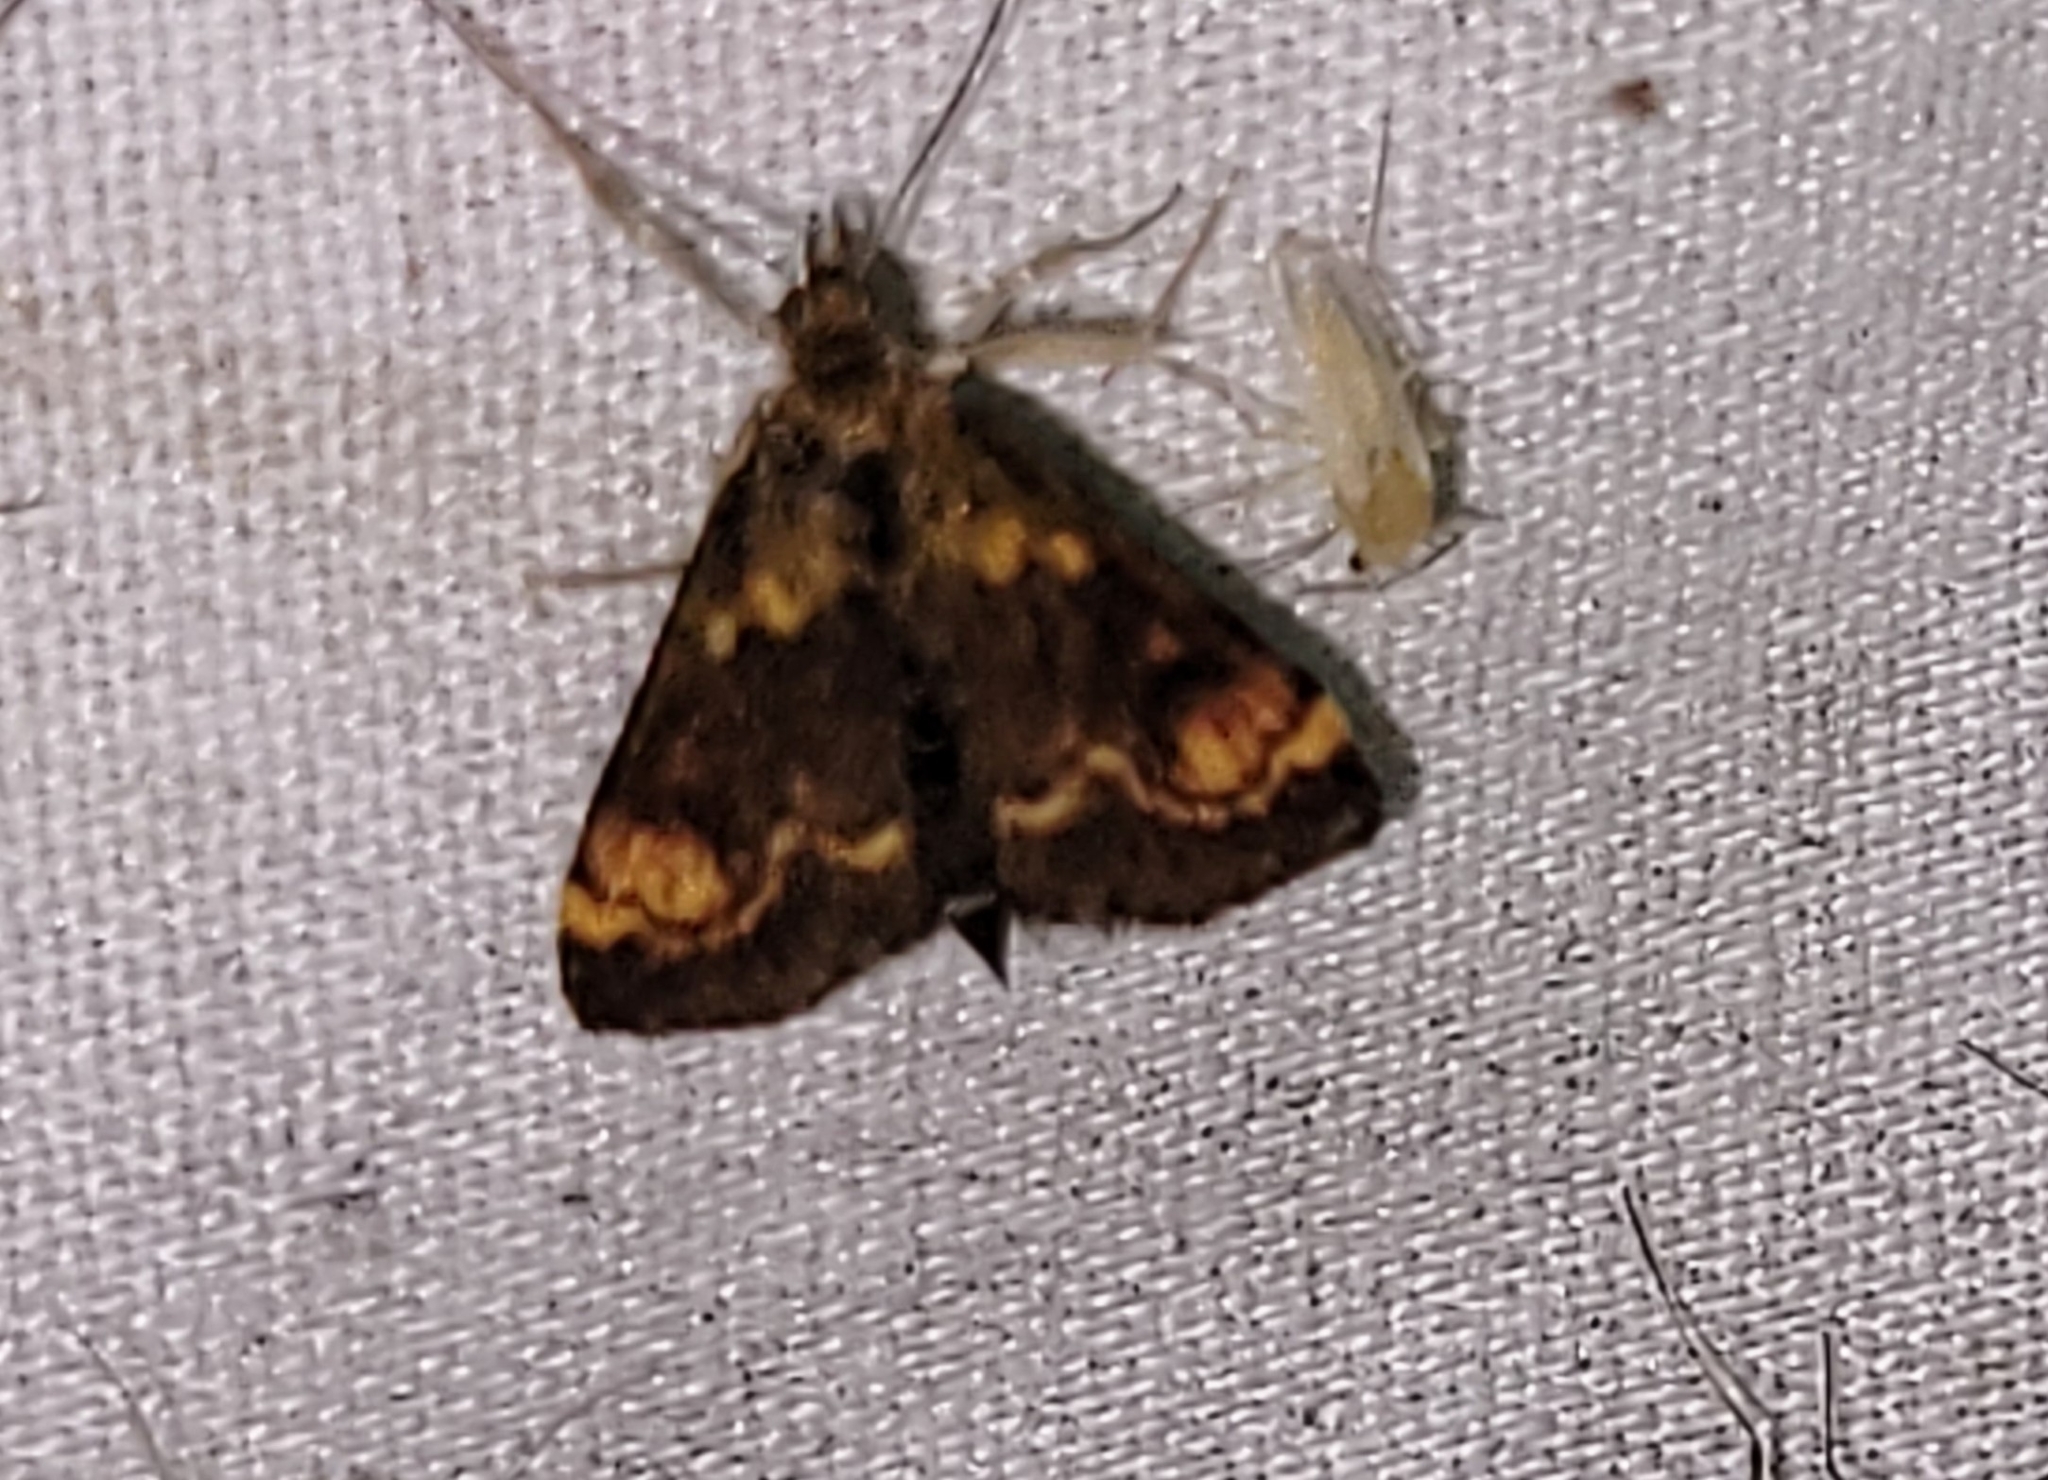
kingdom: Animalia
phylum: Arthropoda
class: Insecta
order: Lepidoptera
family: Crambidae
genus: Pyrausta
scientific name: Pyrausta generosa
